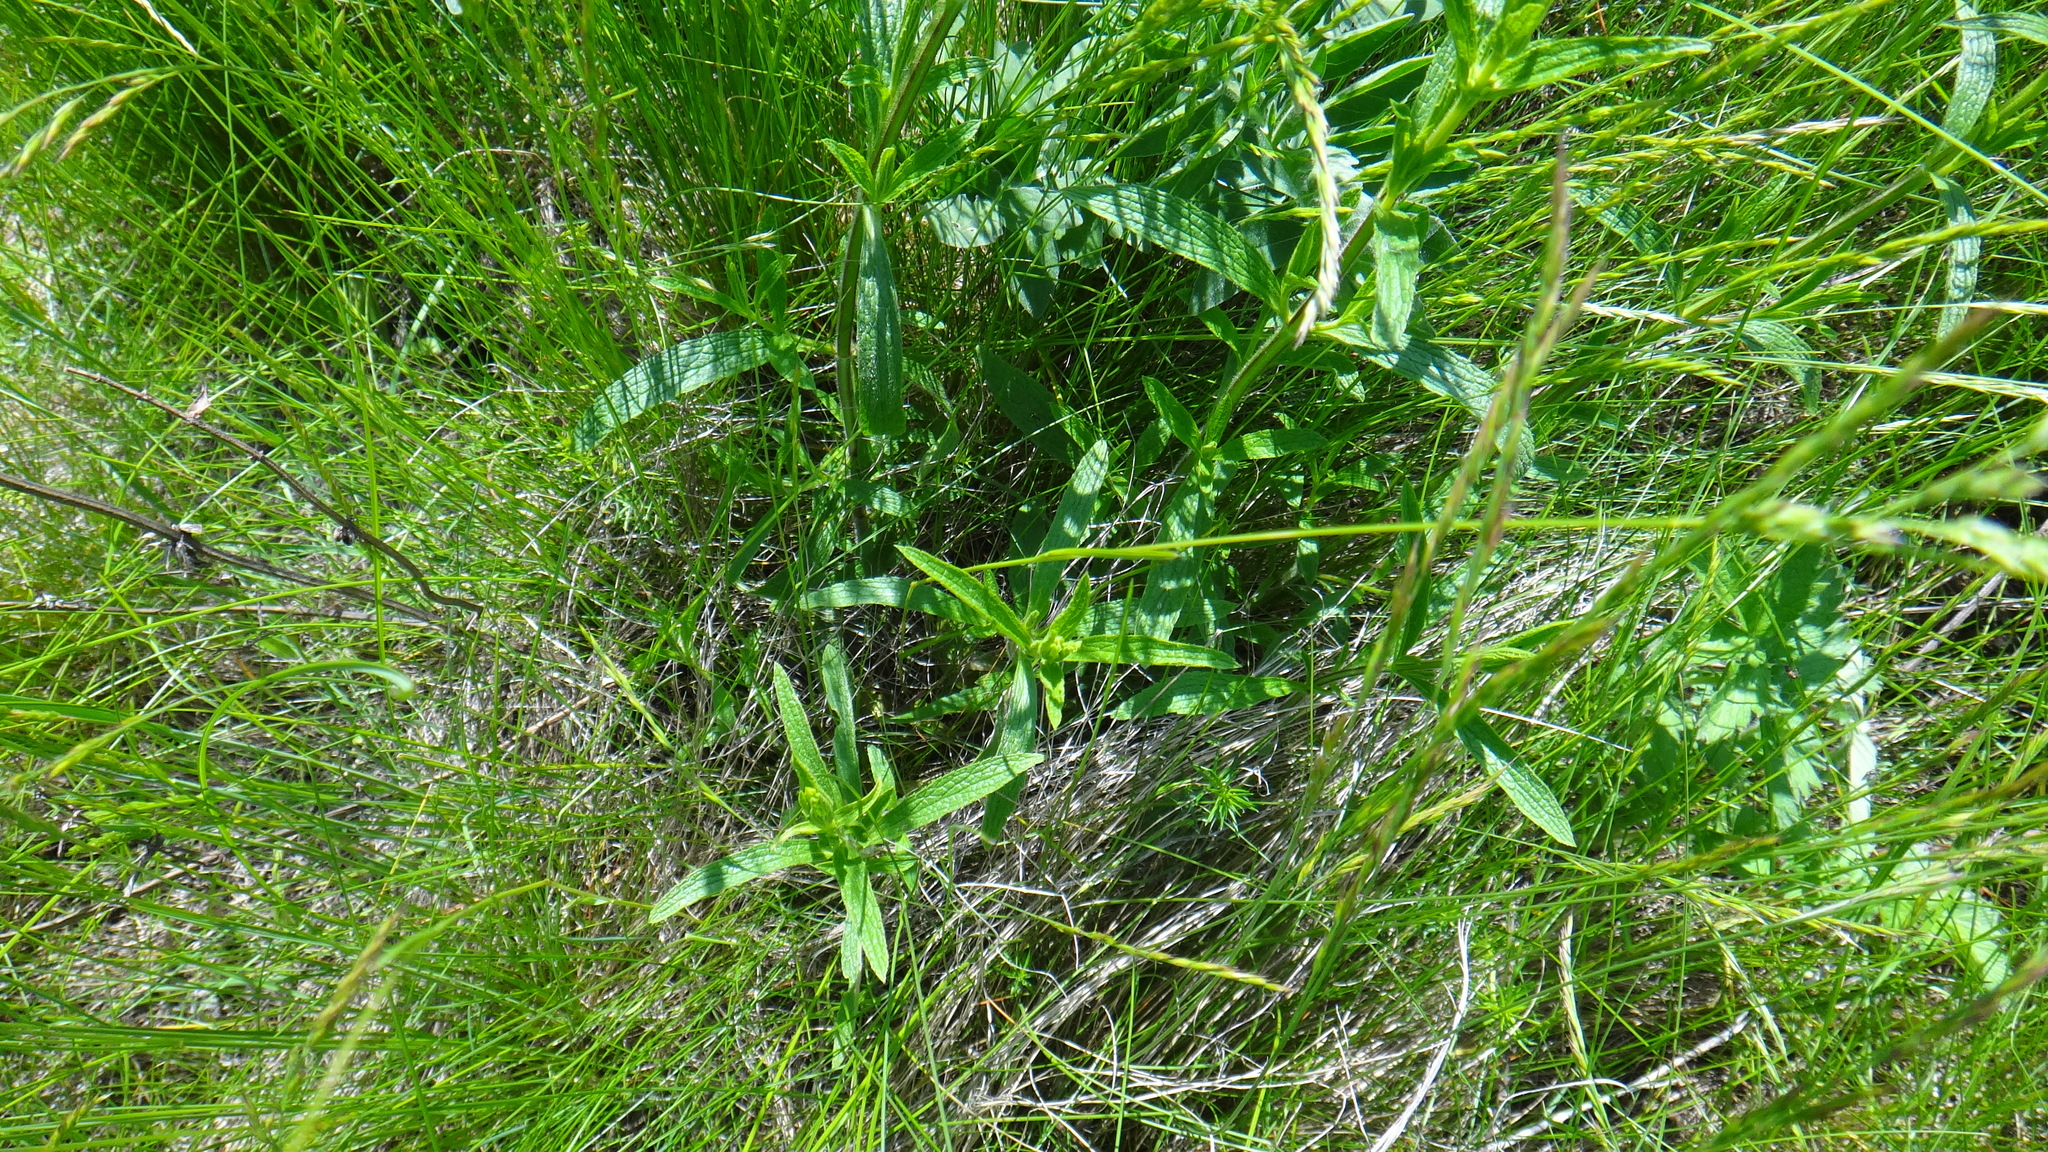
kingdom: Plantae
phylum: Tracheophyta
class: Magnoliopsida
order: Lamiales
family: Lamiaceae
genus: Stachys
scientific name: Stachys recta
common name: Perennial yellow-woundwort
